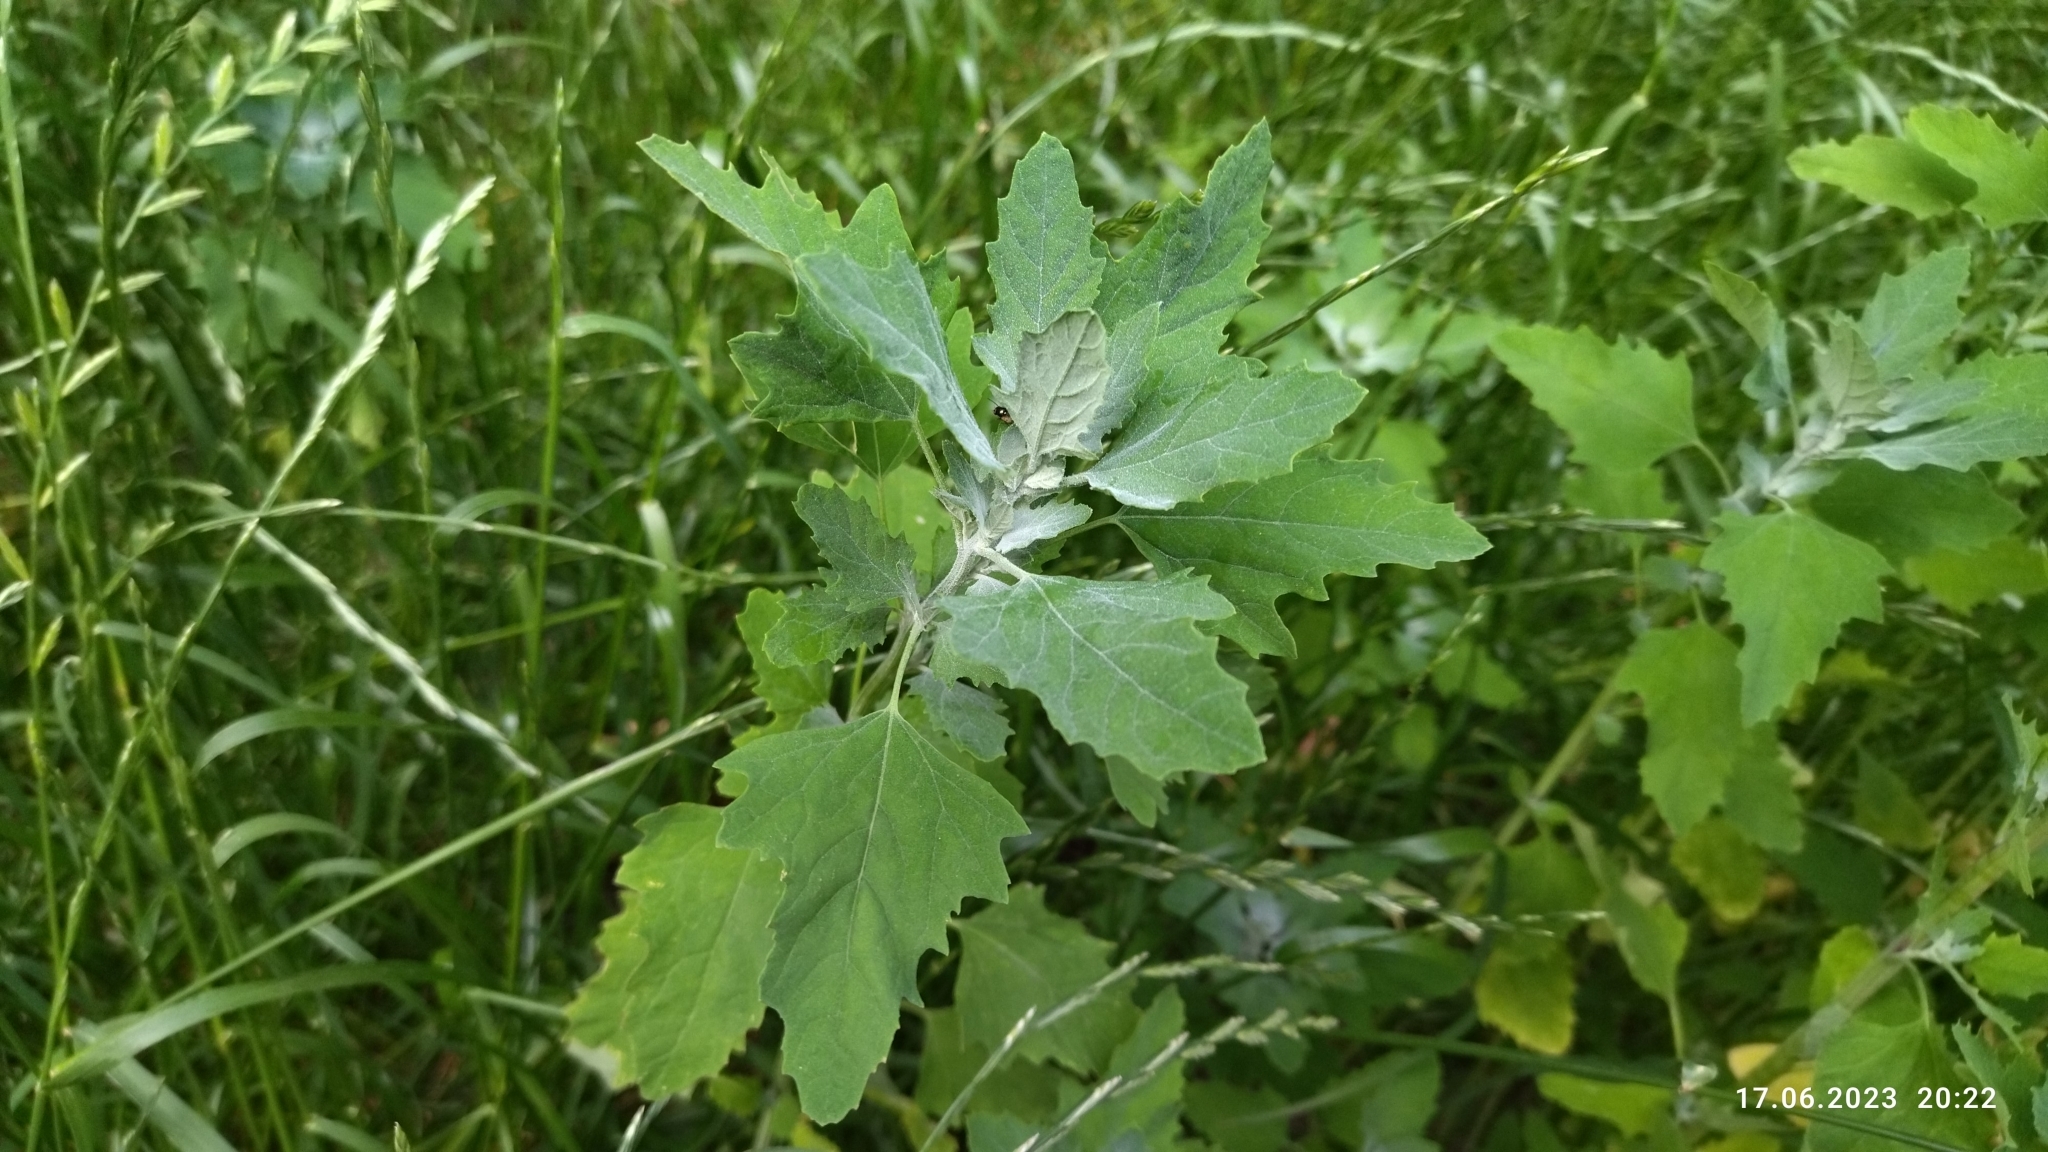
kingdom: Plantae
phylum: Tracheophyta
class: Magnoliopsida
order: Caryophyllales
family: Amaranthaceae
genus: Chenopodium
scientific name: Chenopodium album
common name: Fat-hen
